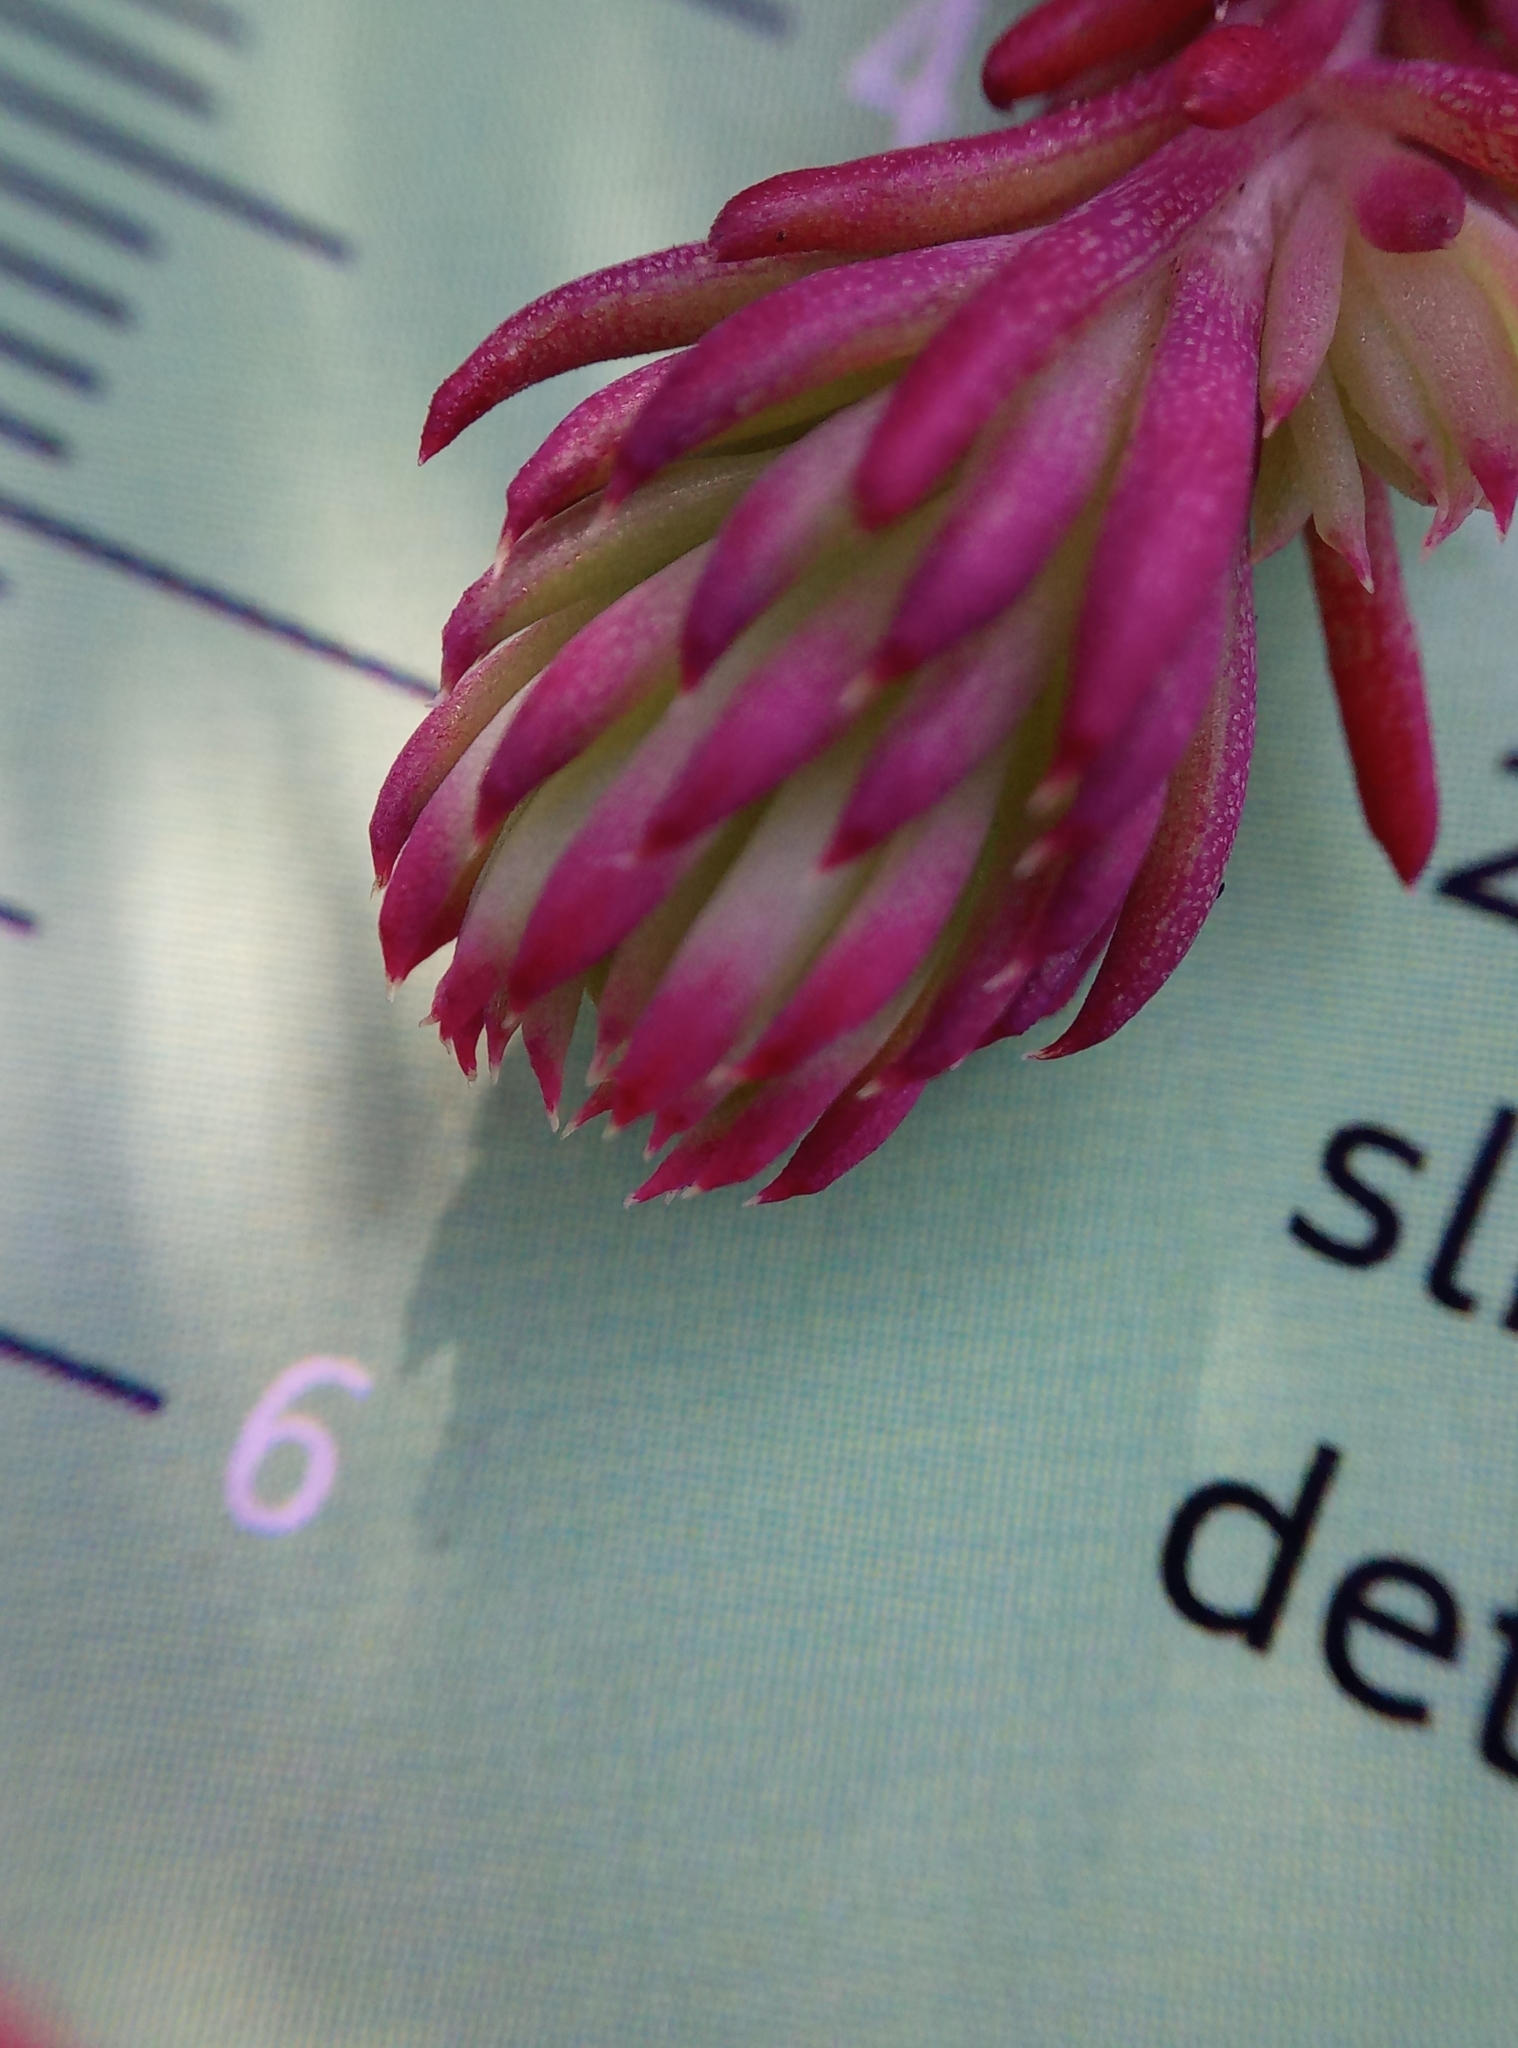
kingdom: Plantae
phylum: Tracheophyta
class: Magnoliopsida
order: Saxifragales
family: Crassulaceae
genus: Petrosedum
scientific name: Petrosedum forsterianum
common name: Forster's stonecrop
